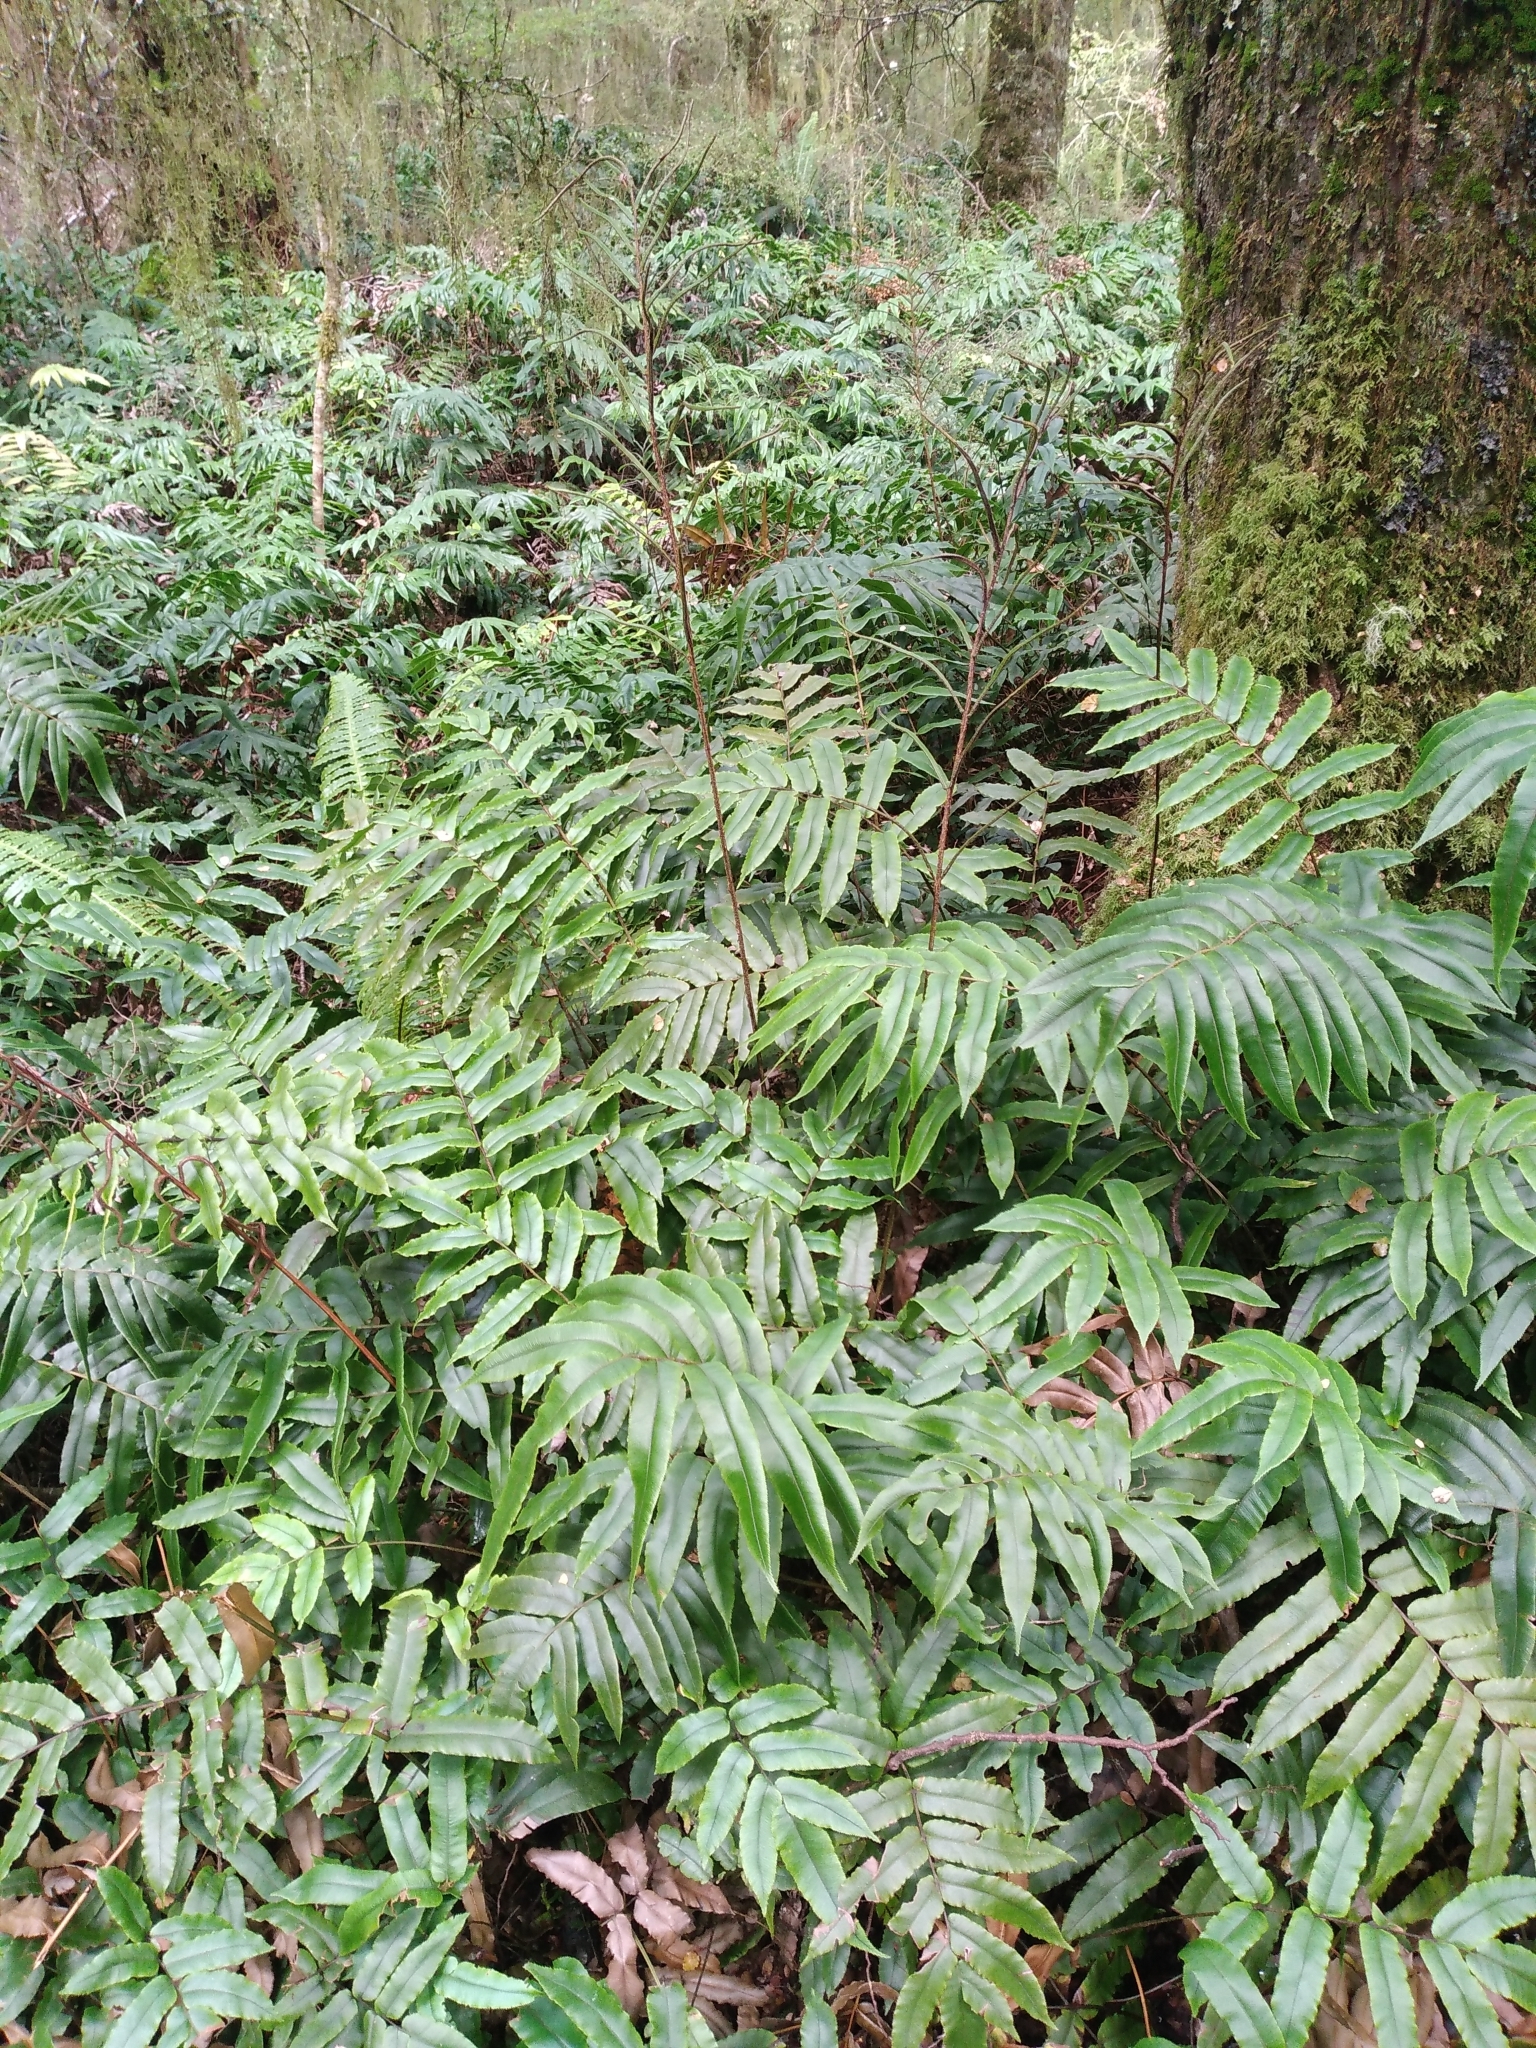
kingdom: Plantae
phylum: Tracheophyta
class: Polypodiopsida
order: Polypodiales
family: Blechnaceae
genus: Parablechnum
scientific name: Parablechnum procerum
